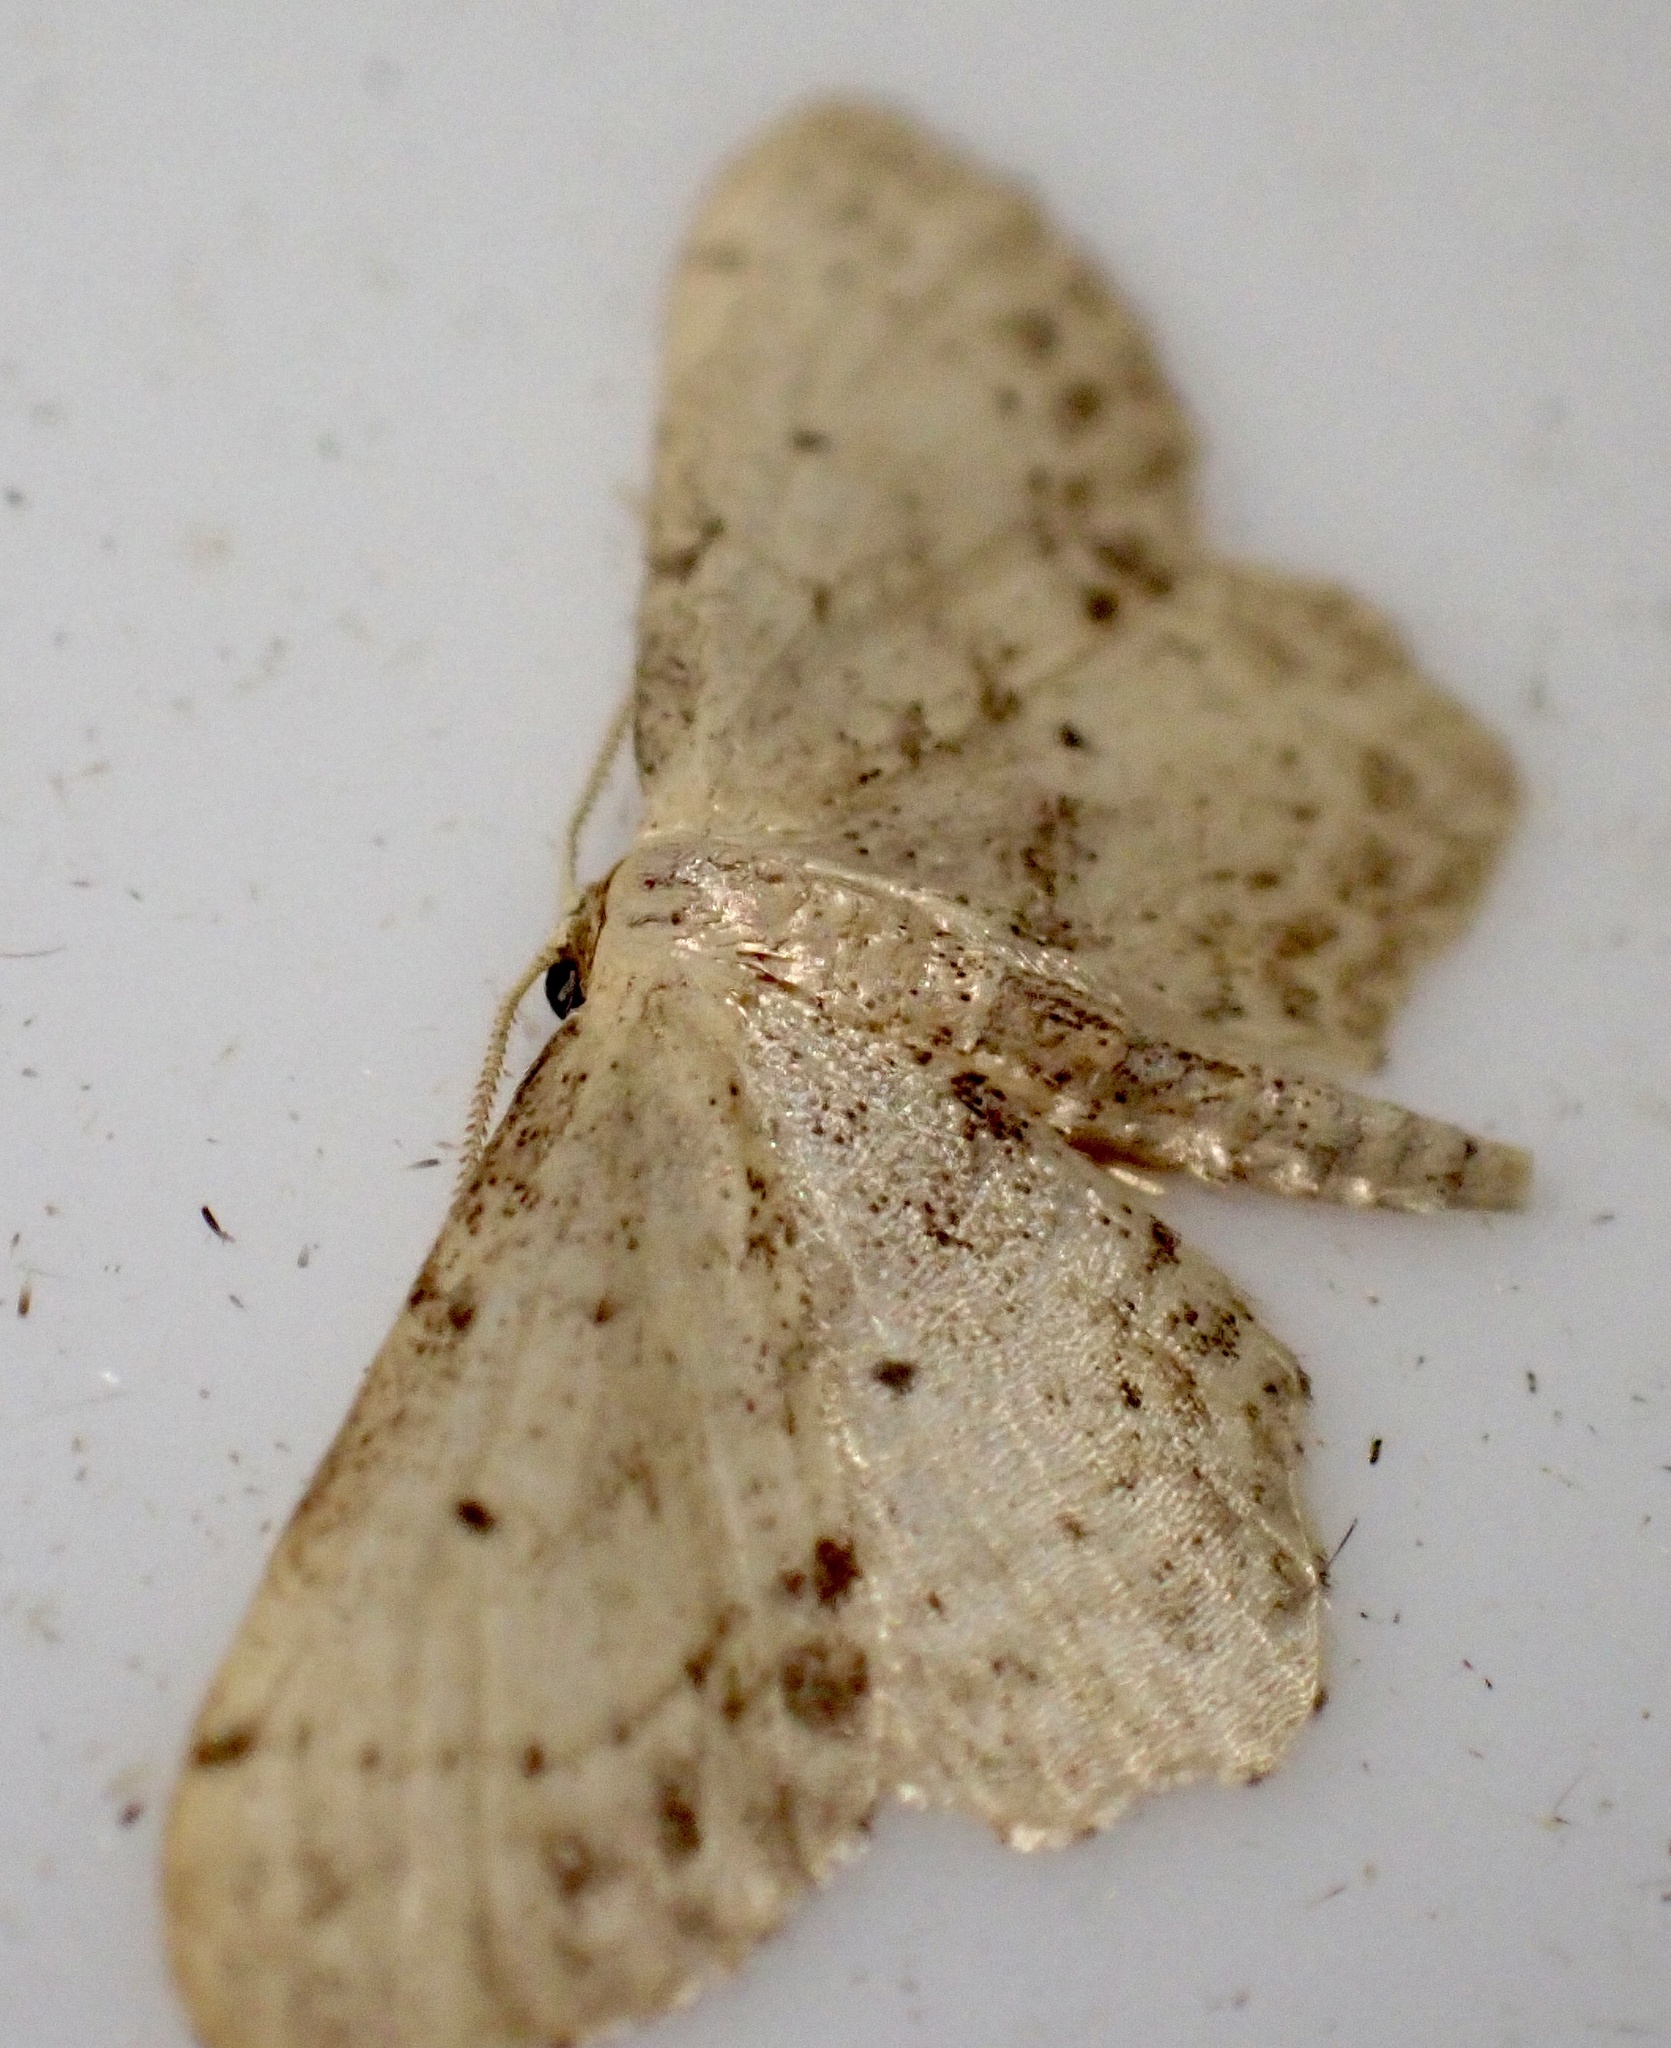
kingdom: Animalia
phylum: Arthropoda
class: Insecta
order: Lepidoptera
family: Geometridae
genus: Idaea
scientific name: Idaea dimidiata
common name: Single-dotted wave
